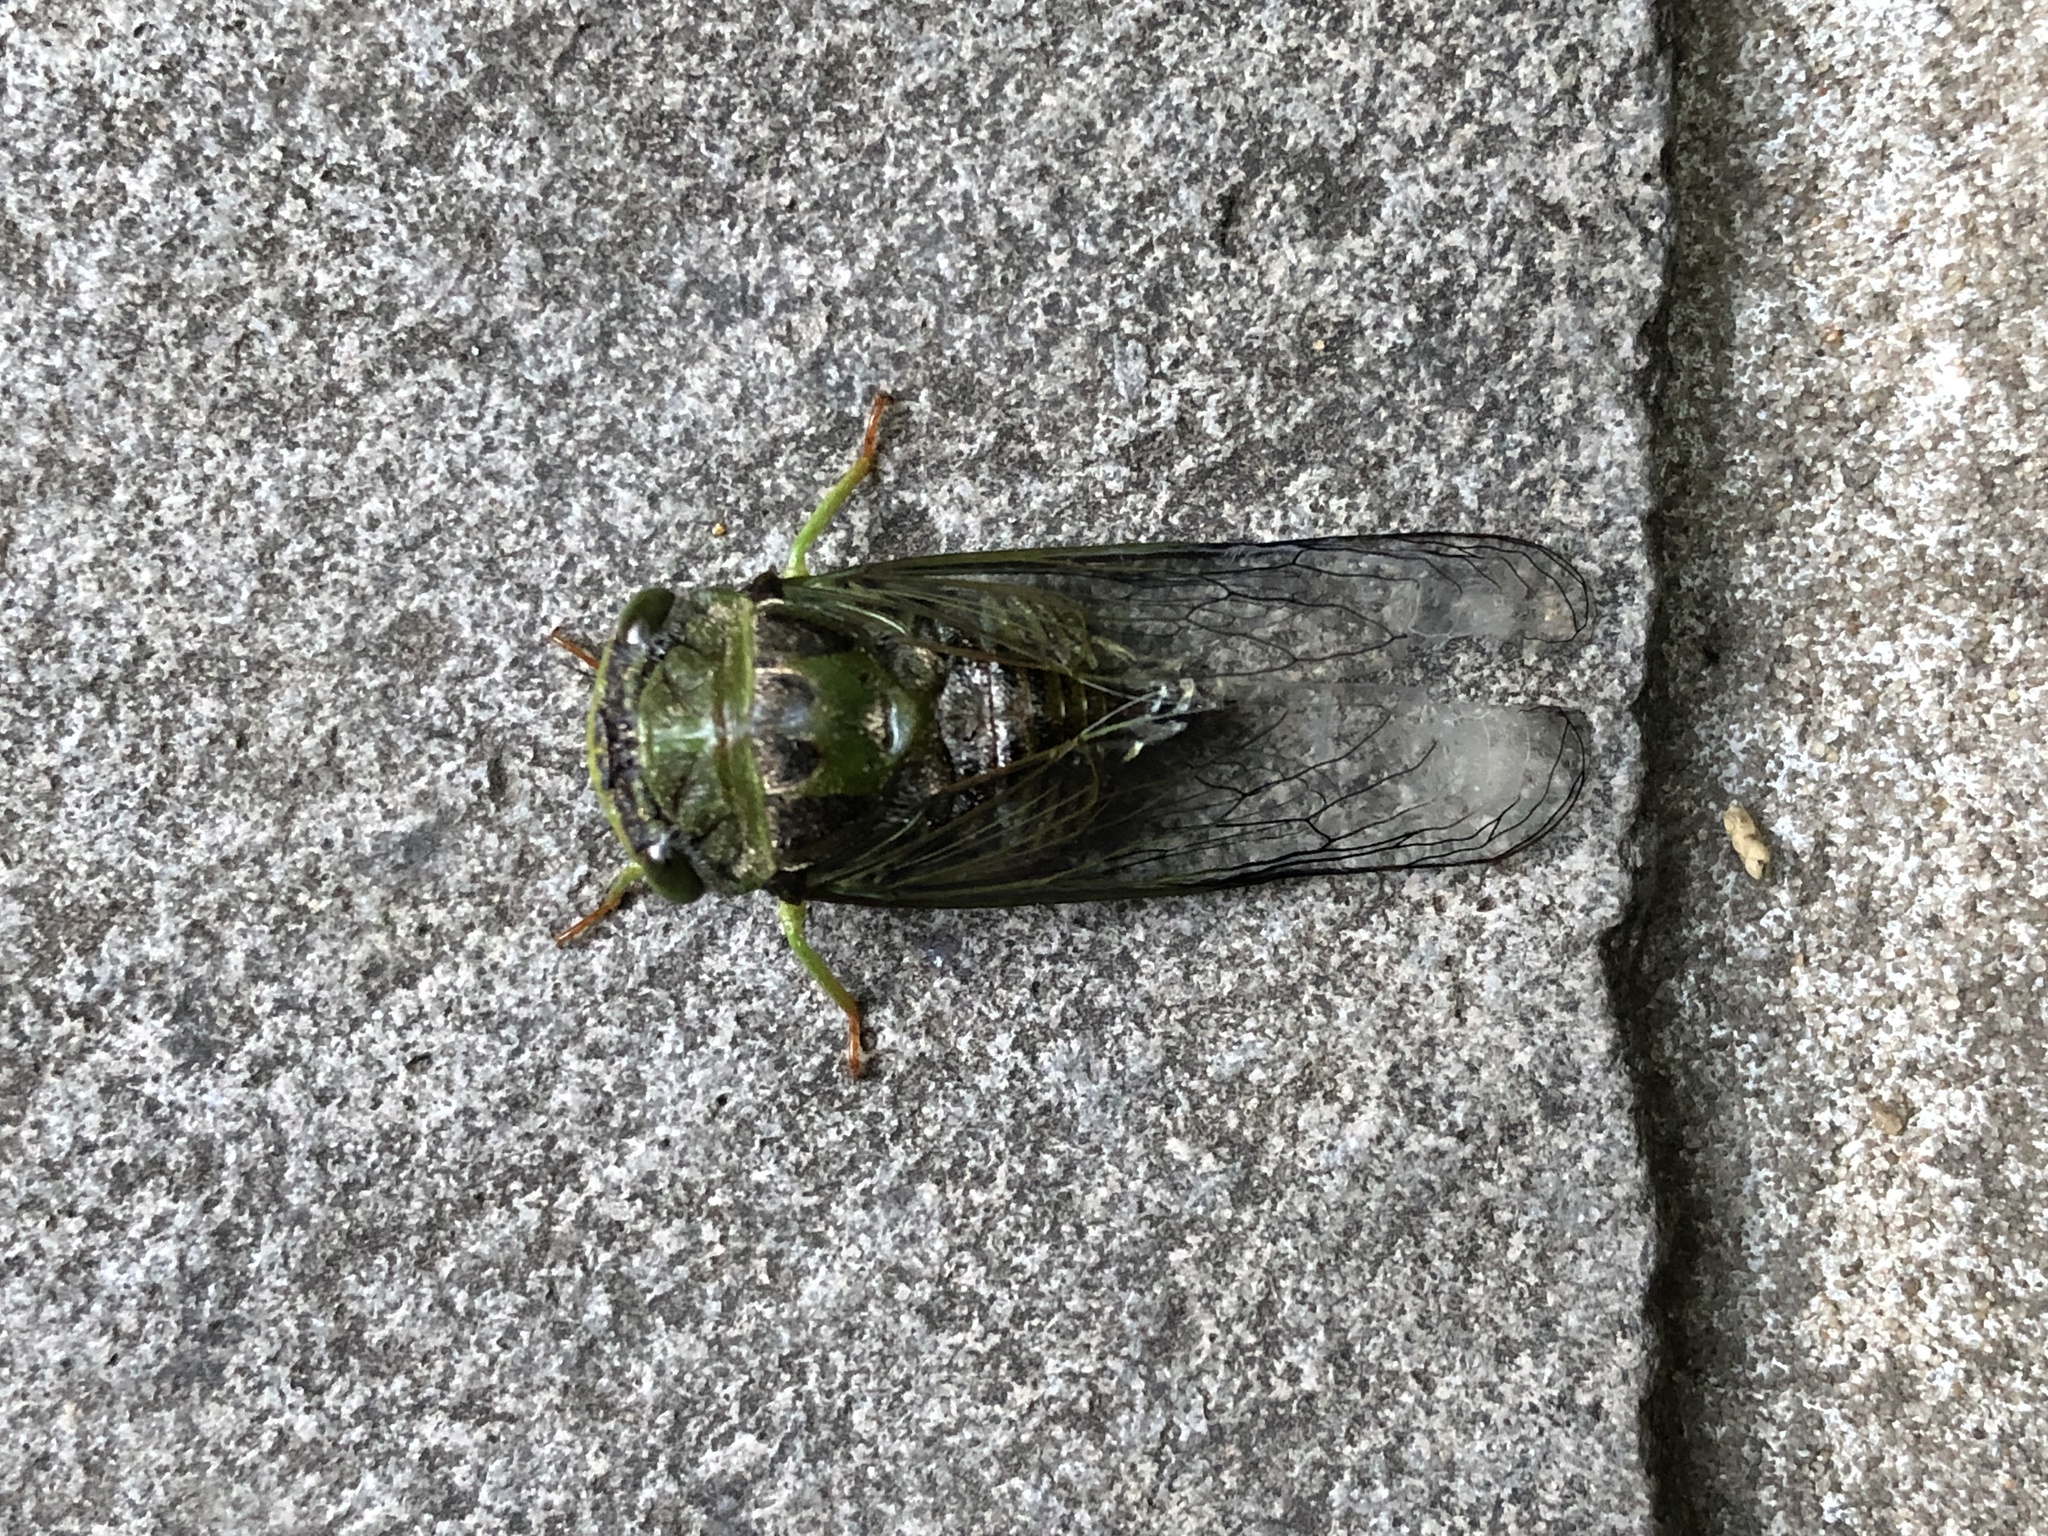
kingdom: Animalia
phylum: Arthropoda
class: Insecta
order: Hemiptera
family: Cicadidae
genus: Acanthoventris
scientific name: Acanthoventris drewseni
